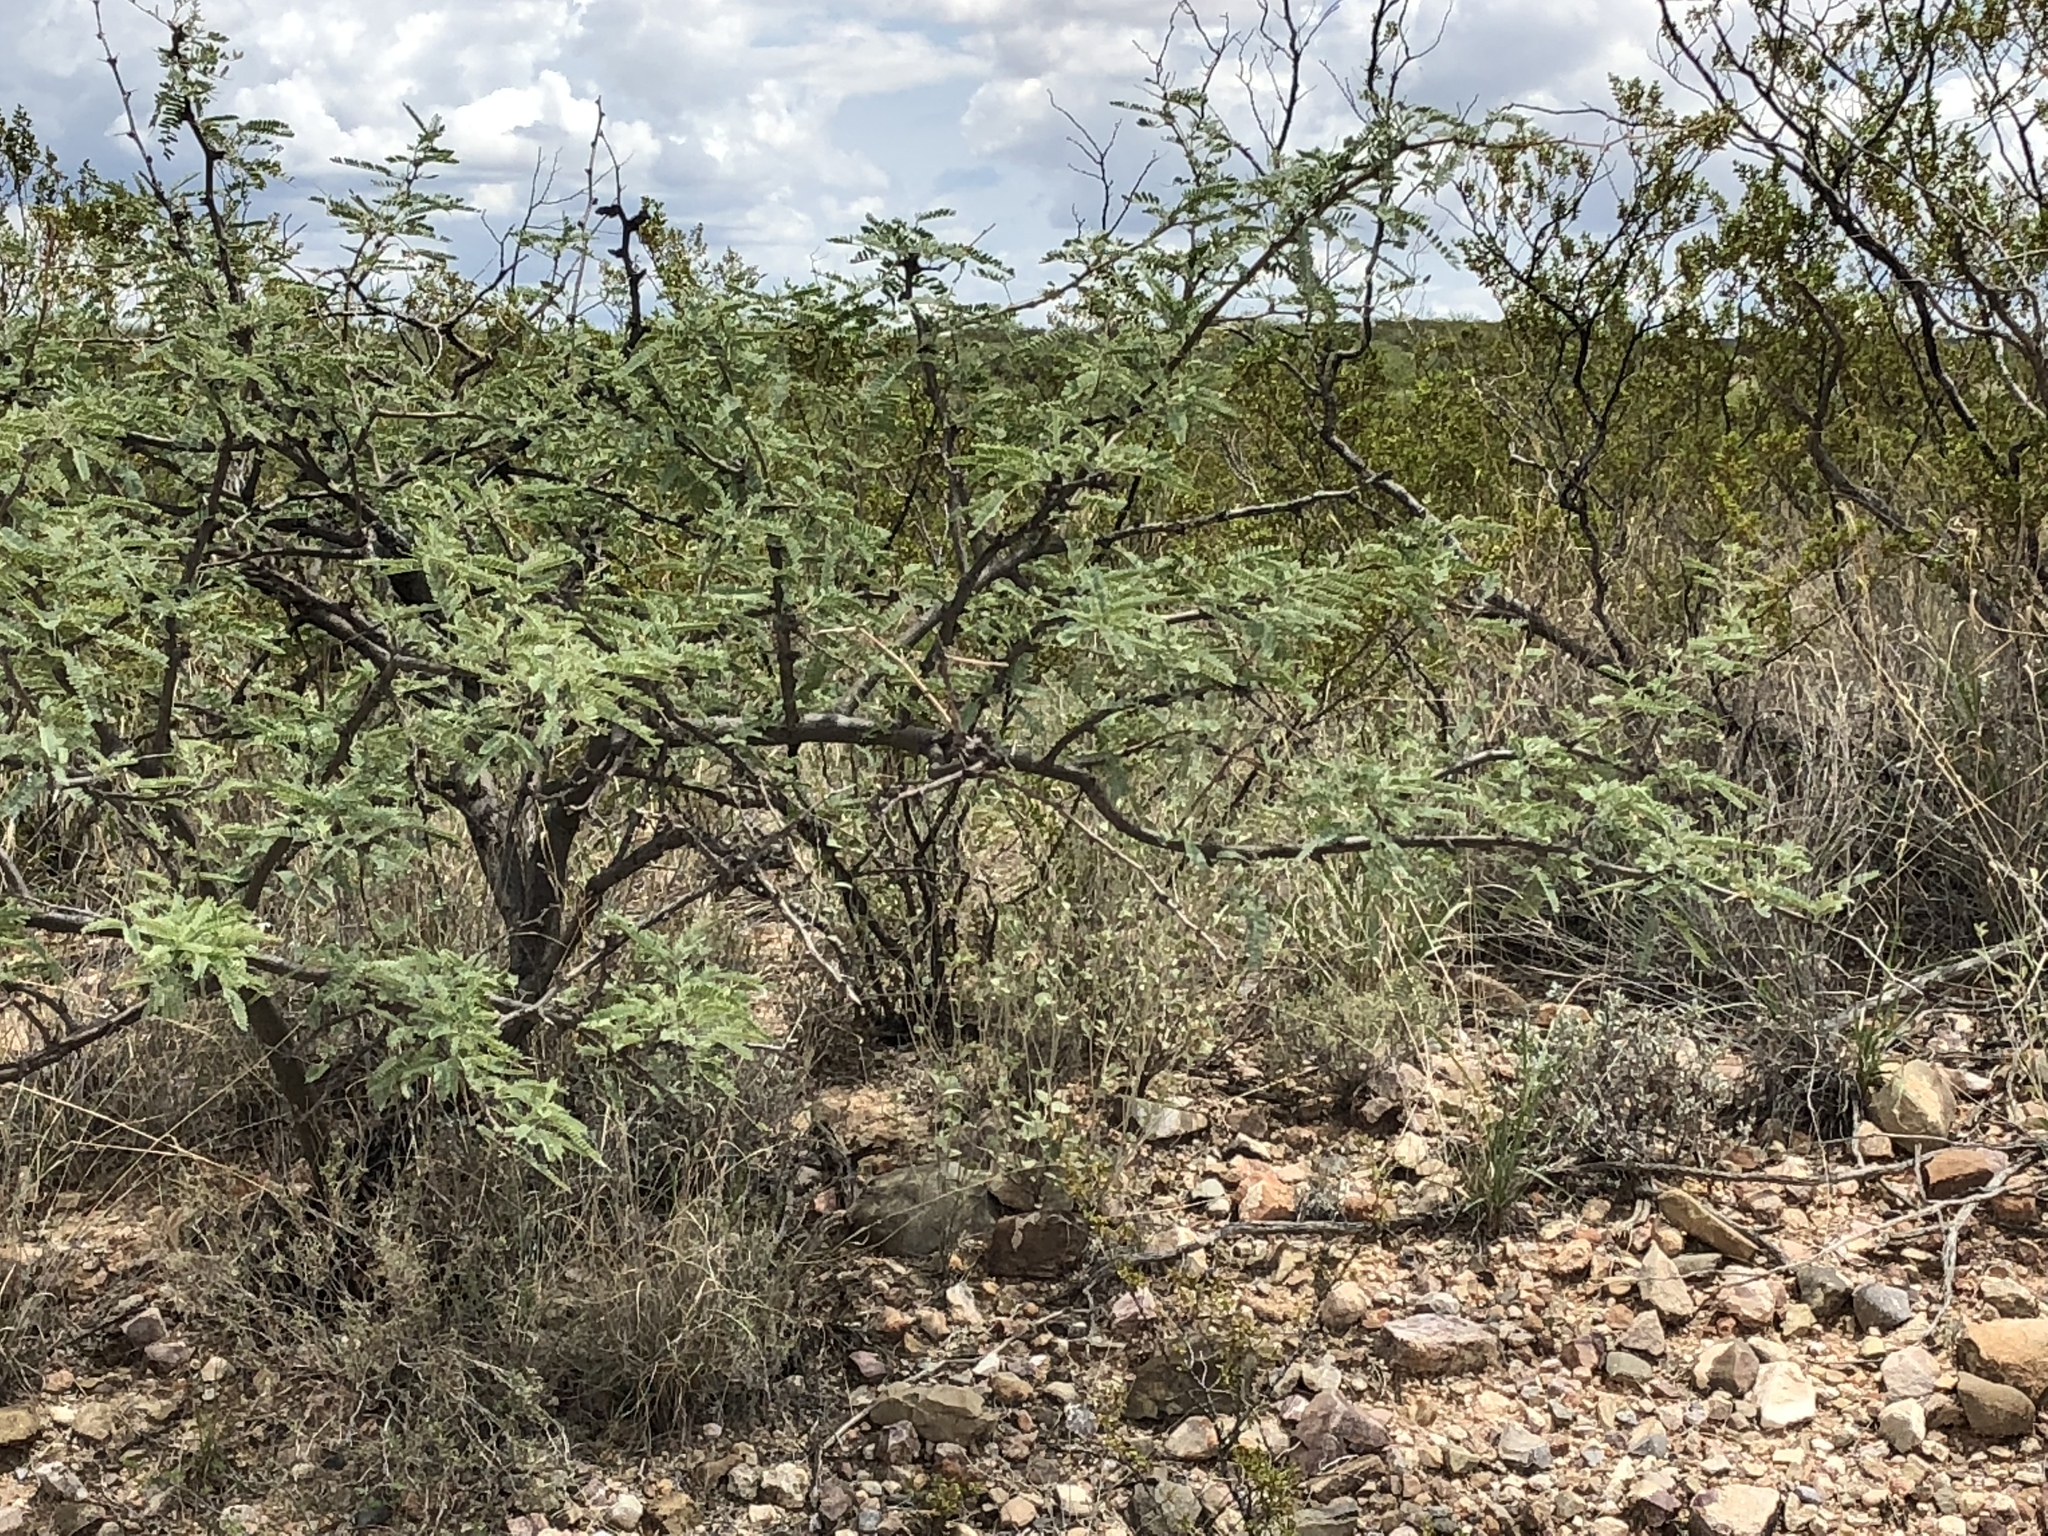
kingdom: Plantae
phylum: Tracheophyta
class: Magnoliopsida
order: Fabales
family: Fabaceae
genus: Prosopis
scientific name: Prosopis velutina
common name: Velvet mesquite
